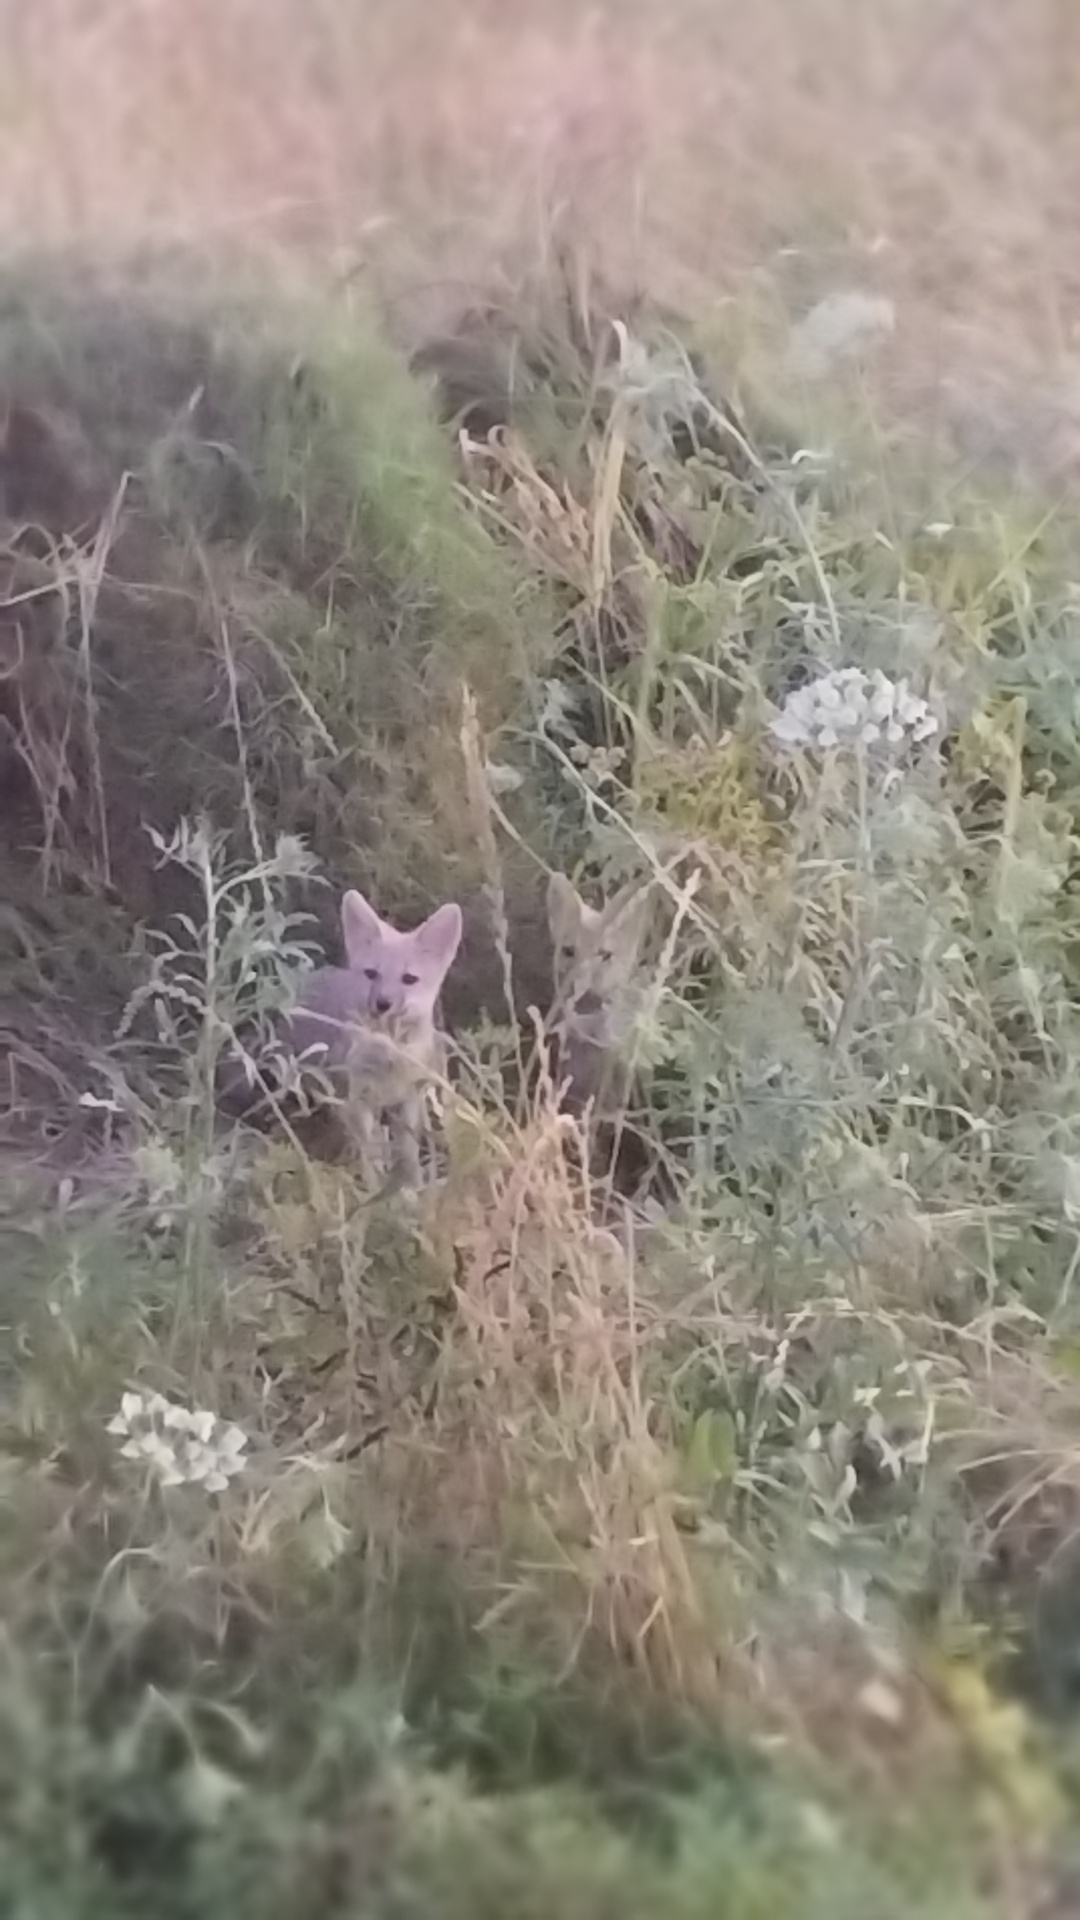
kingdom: Animalia
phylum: Chordata
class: Mammalia
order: Carnivora
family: Canidae
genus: Lycalopex
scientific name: Lycalopex gymnocercus
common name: Pampas fox
